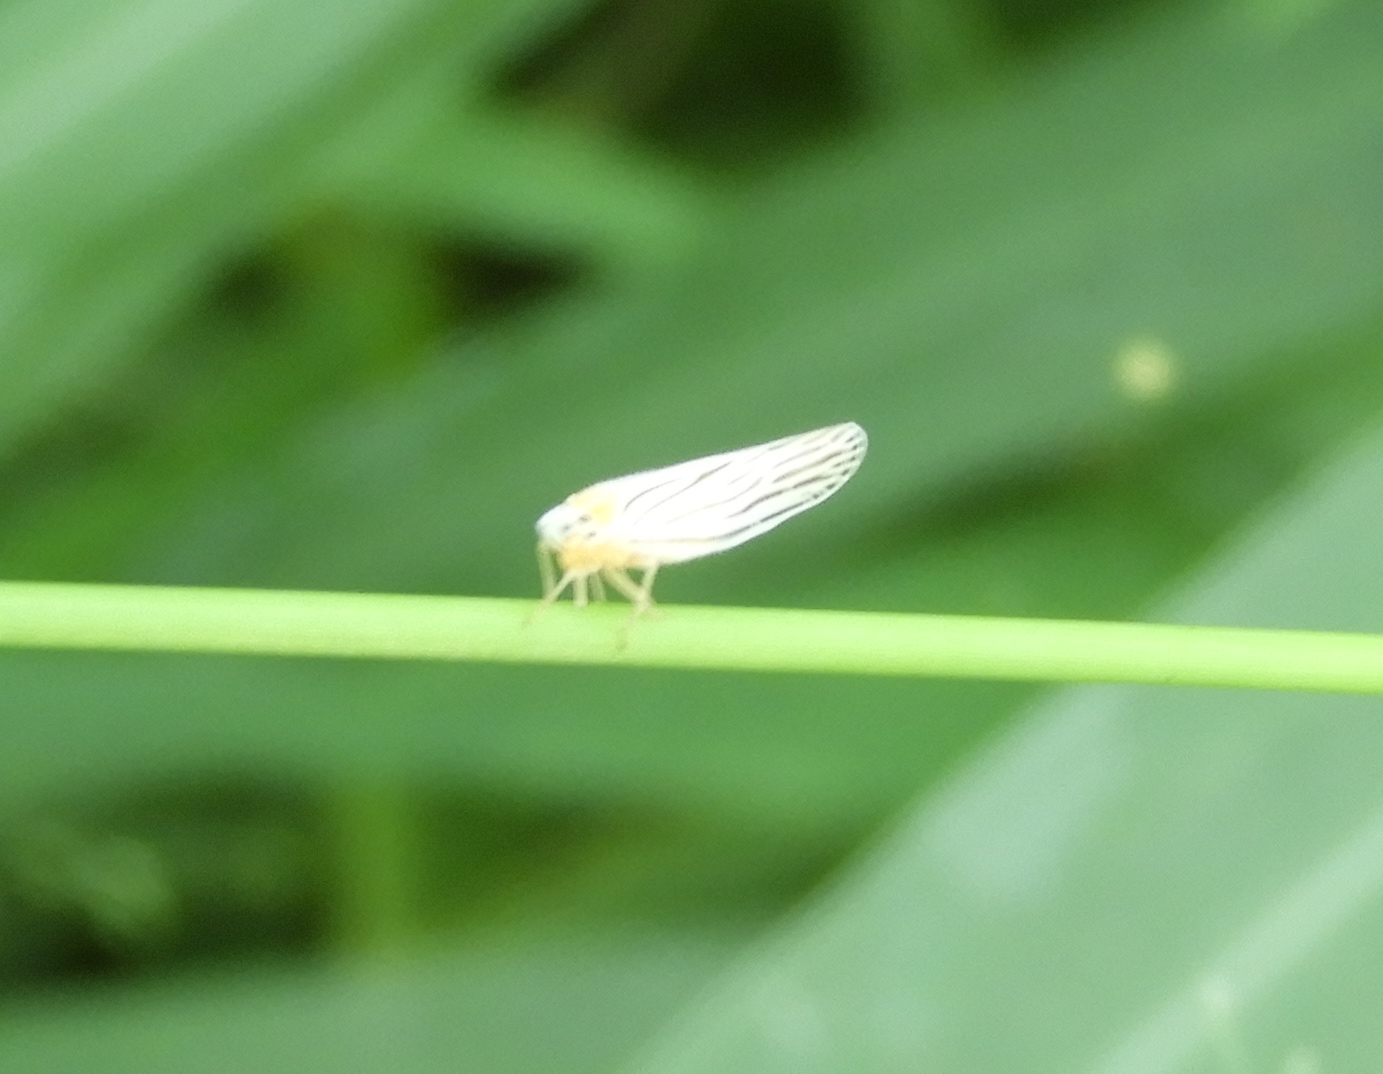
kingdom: Animalia
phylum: Arthropoda
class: Insecta
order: Hemiptera
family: Derbidae
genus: Persis
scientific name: Persis
